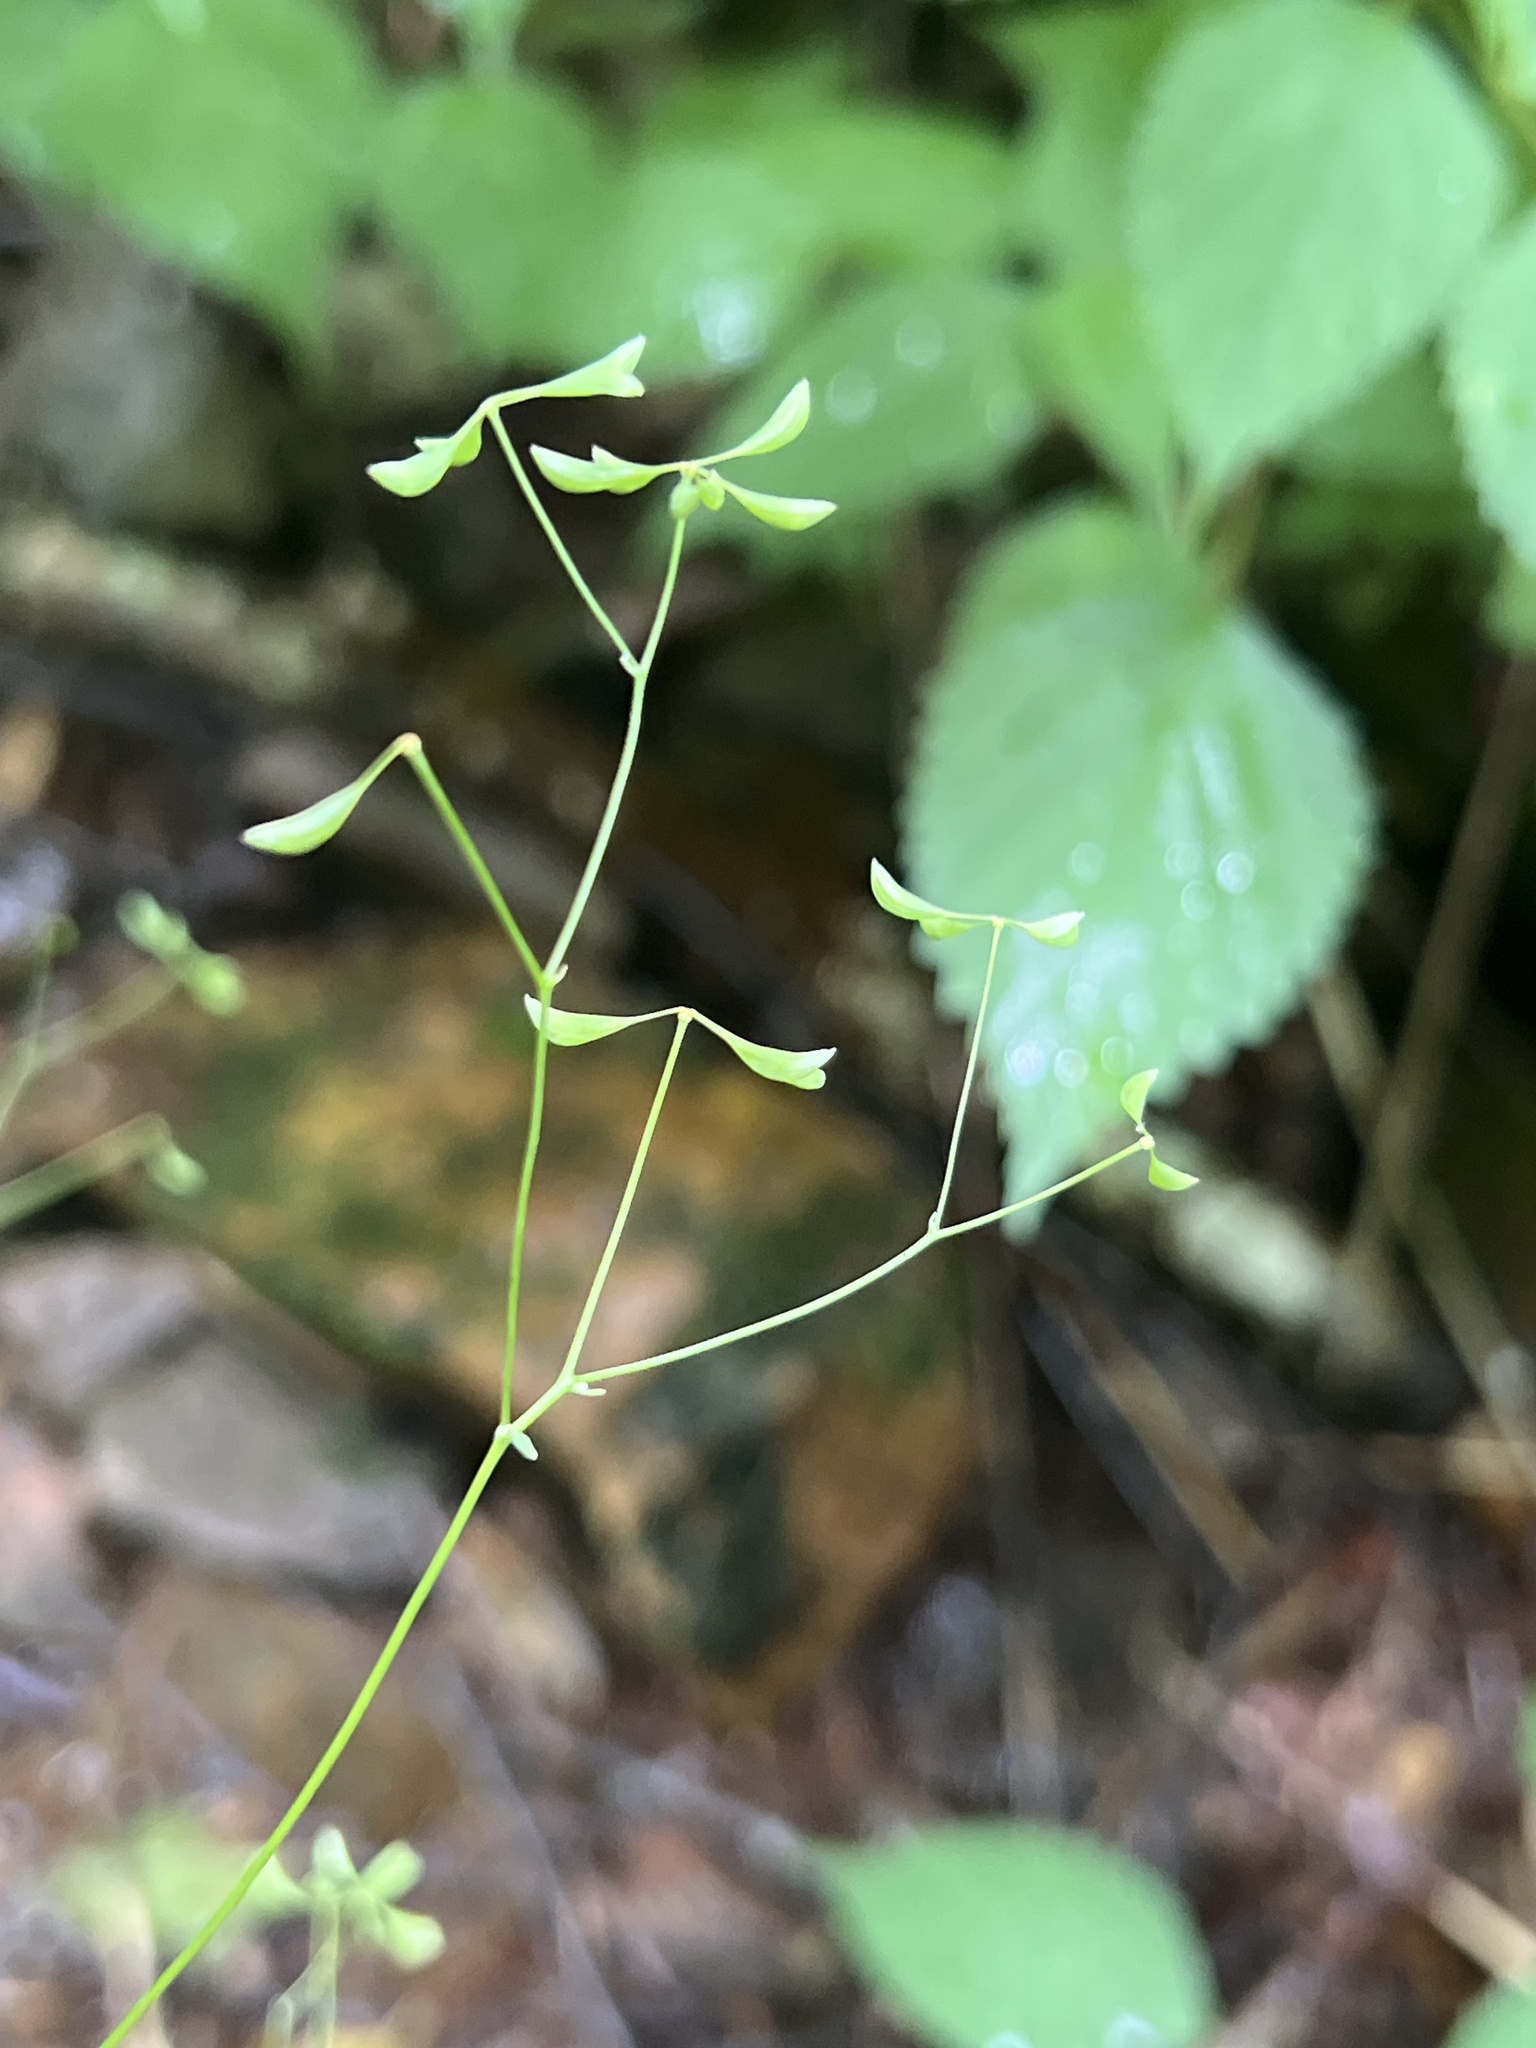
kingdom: Plantae
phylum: Tracheophyta
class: Magnoliopsida
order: Ranunculales
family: Ranunculaceae
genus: Thalictrum
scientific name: Thalictrum clavatum
